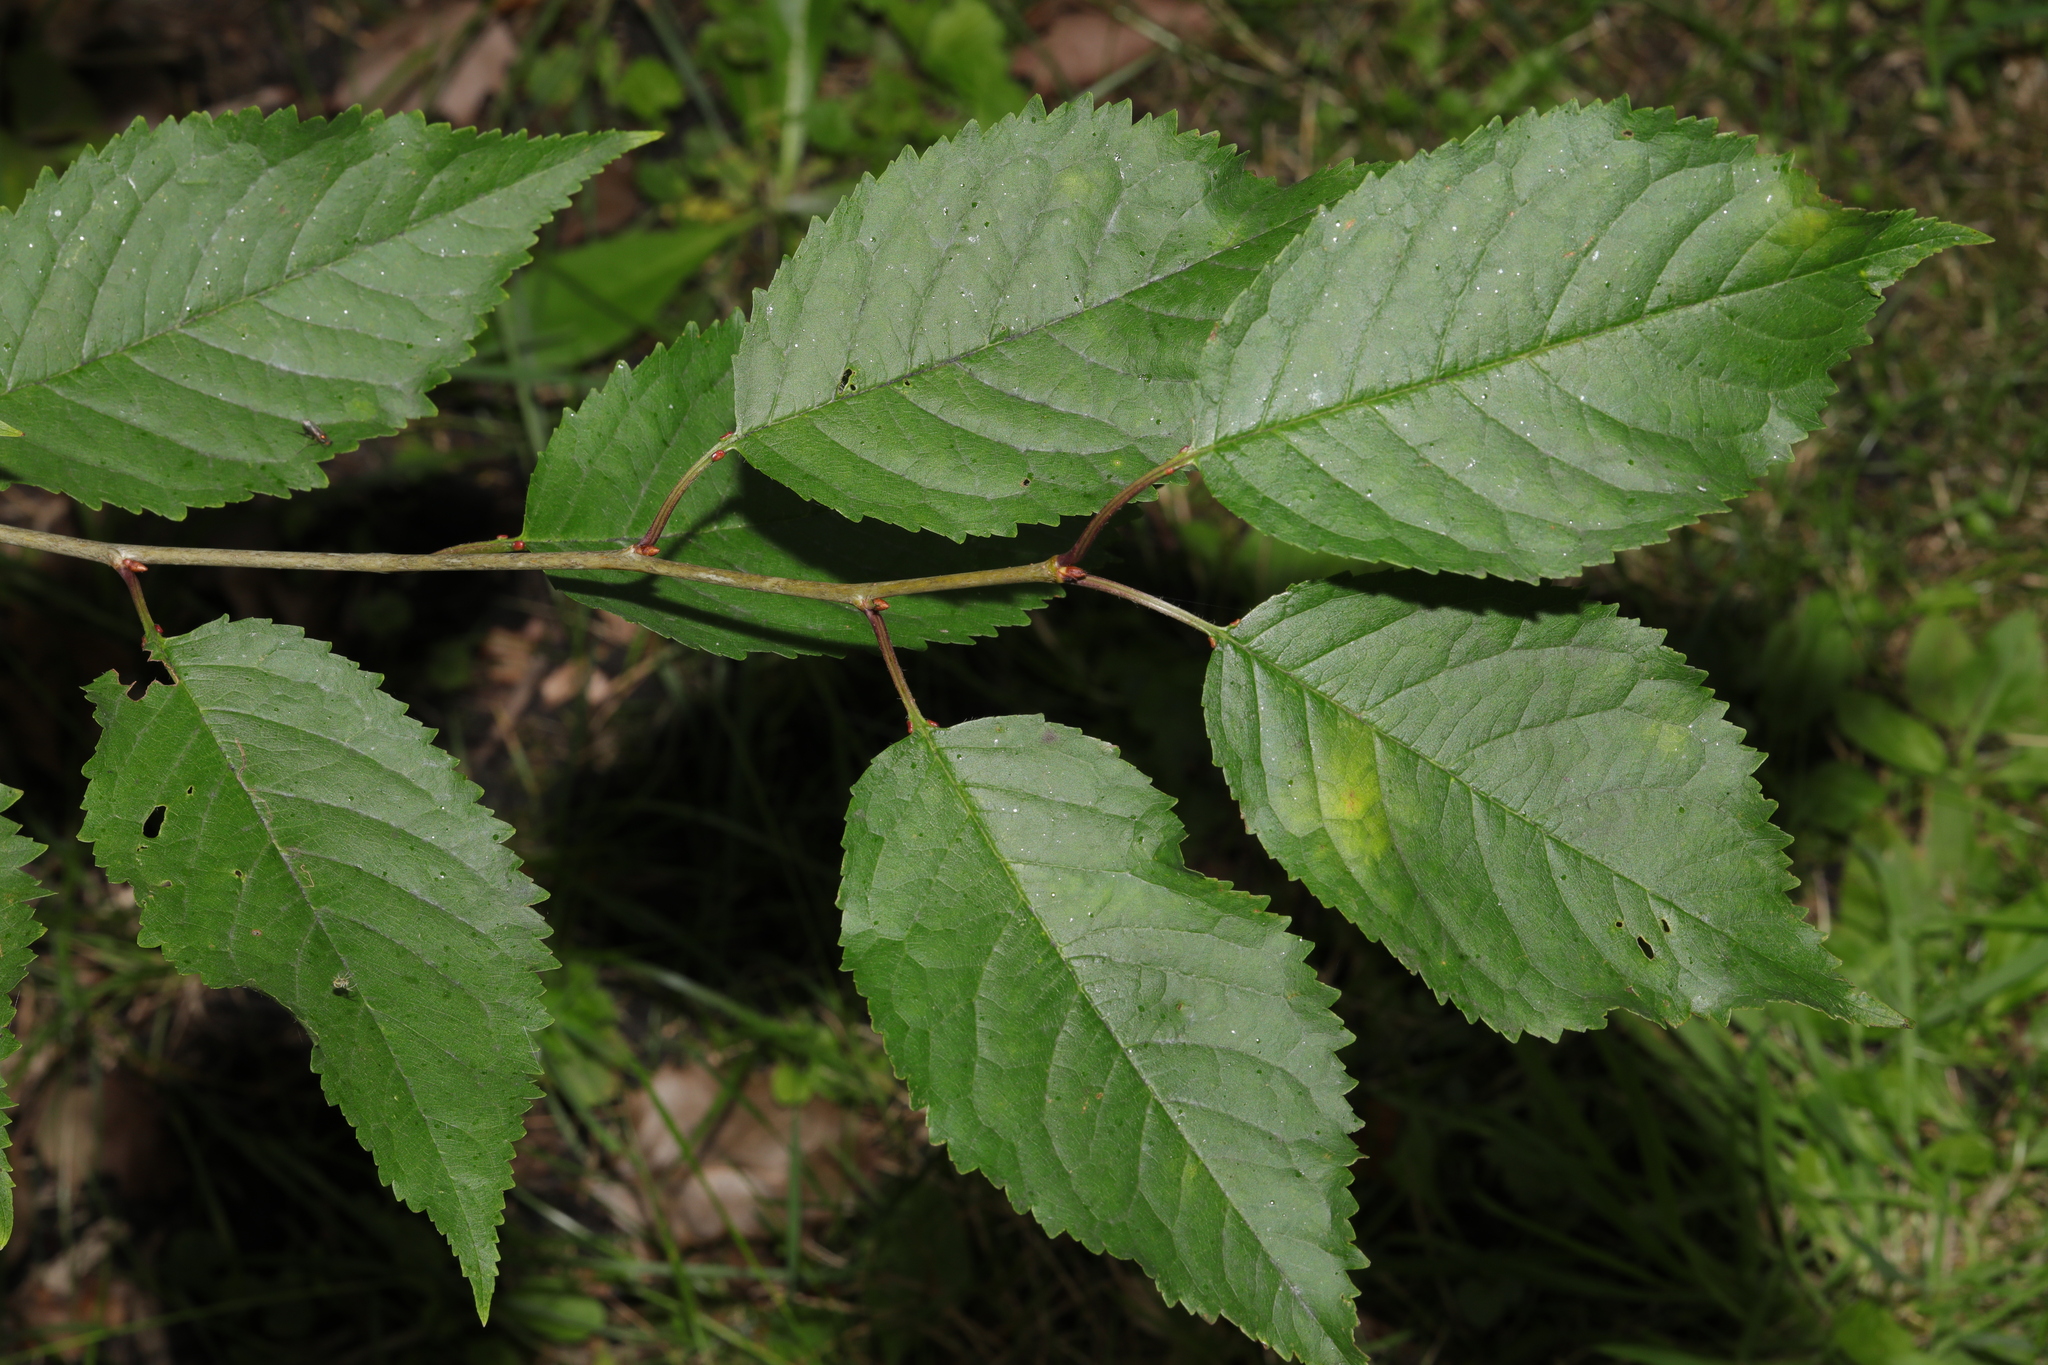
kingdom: Plantae
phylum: Tracheophyta
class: Magnoliopsida
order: Rosales
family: Rosaceae
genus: Prunus
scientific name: Prunus avium
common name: Sweet cherry
